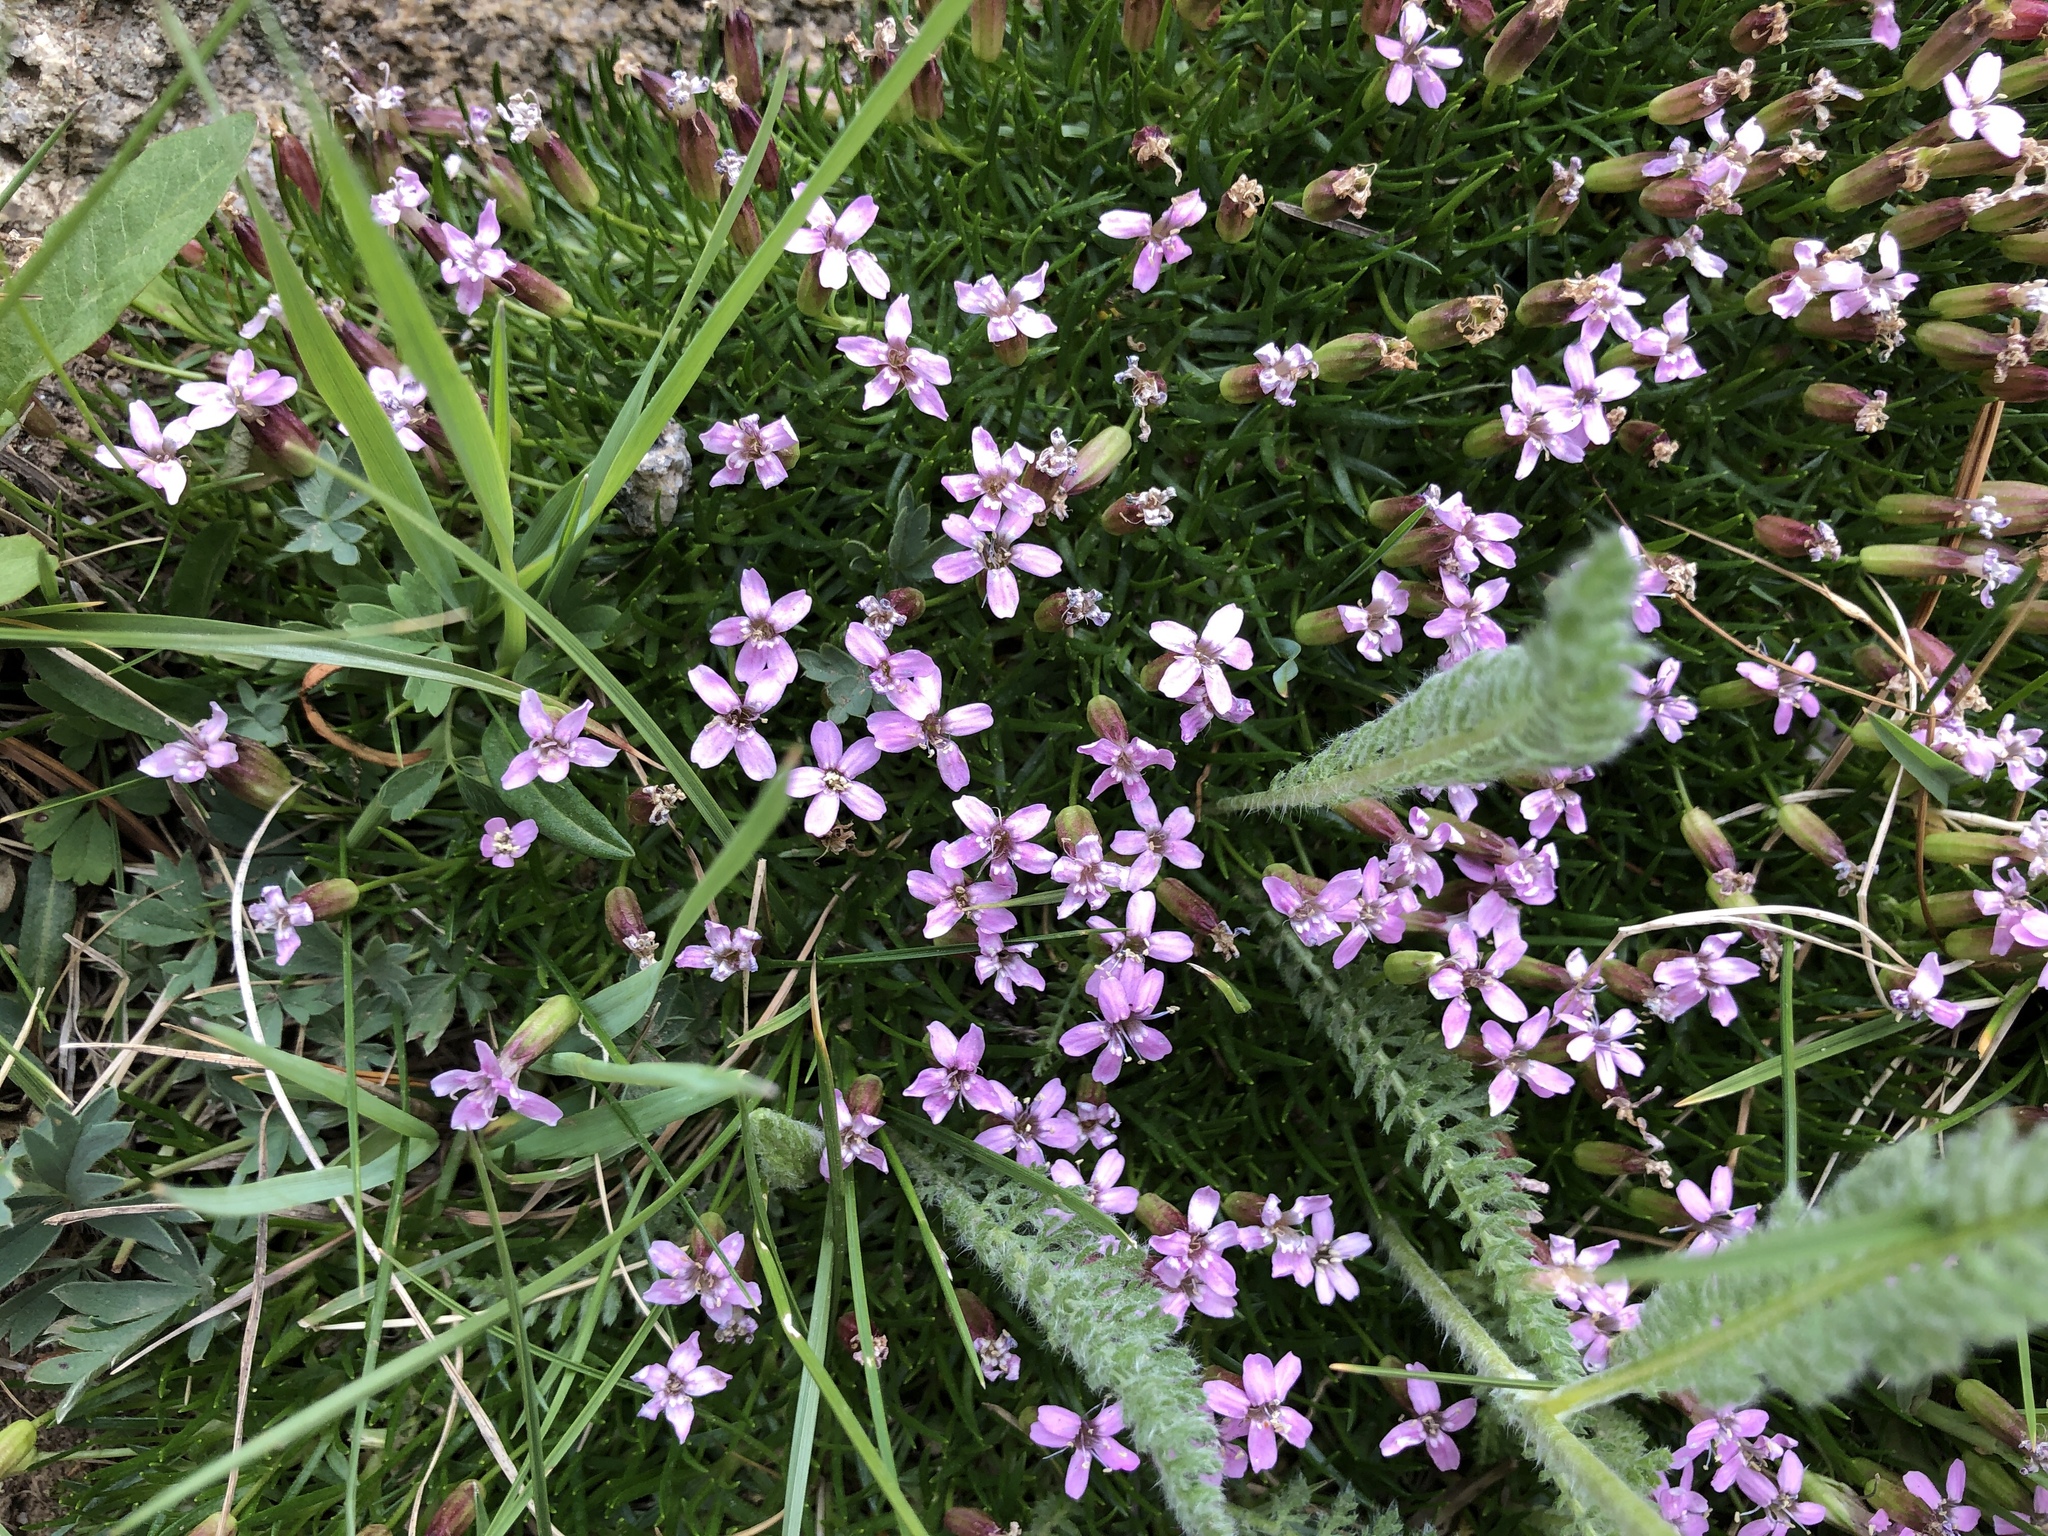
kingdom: Plantae
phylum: Tracheophyta
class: Magnoliopsida
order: Caryophyllales
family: Caryophyllaceae
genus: Silene
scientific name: Silene acaulis
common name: Moss campion
